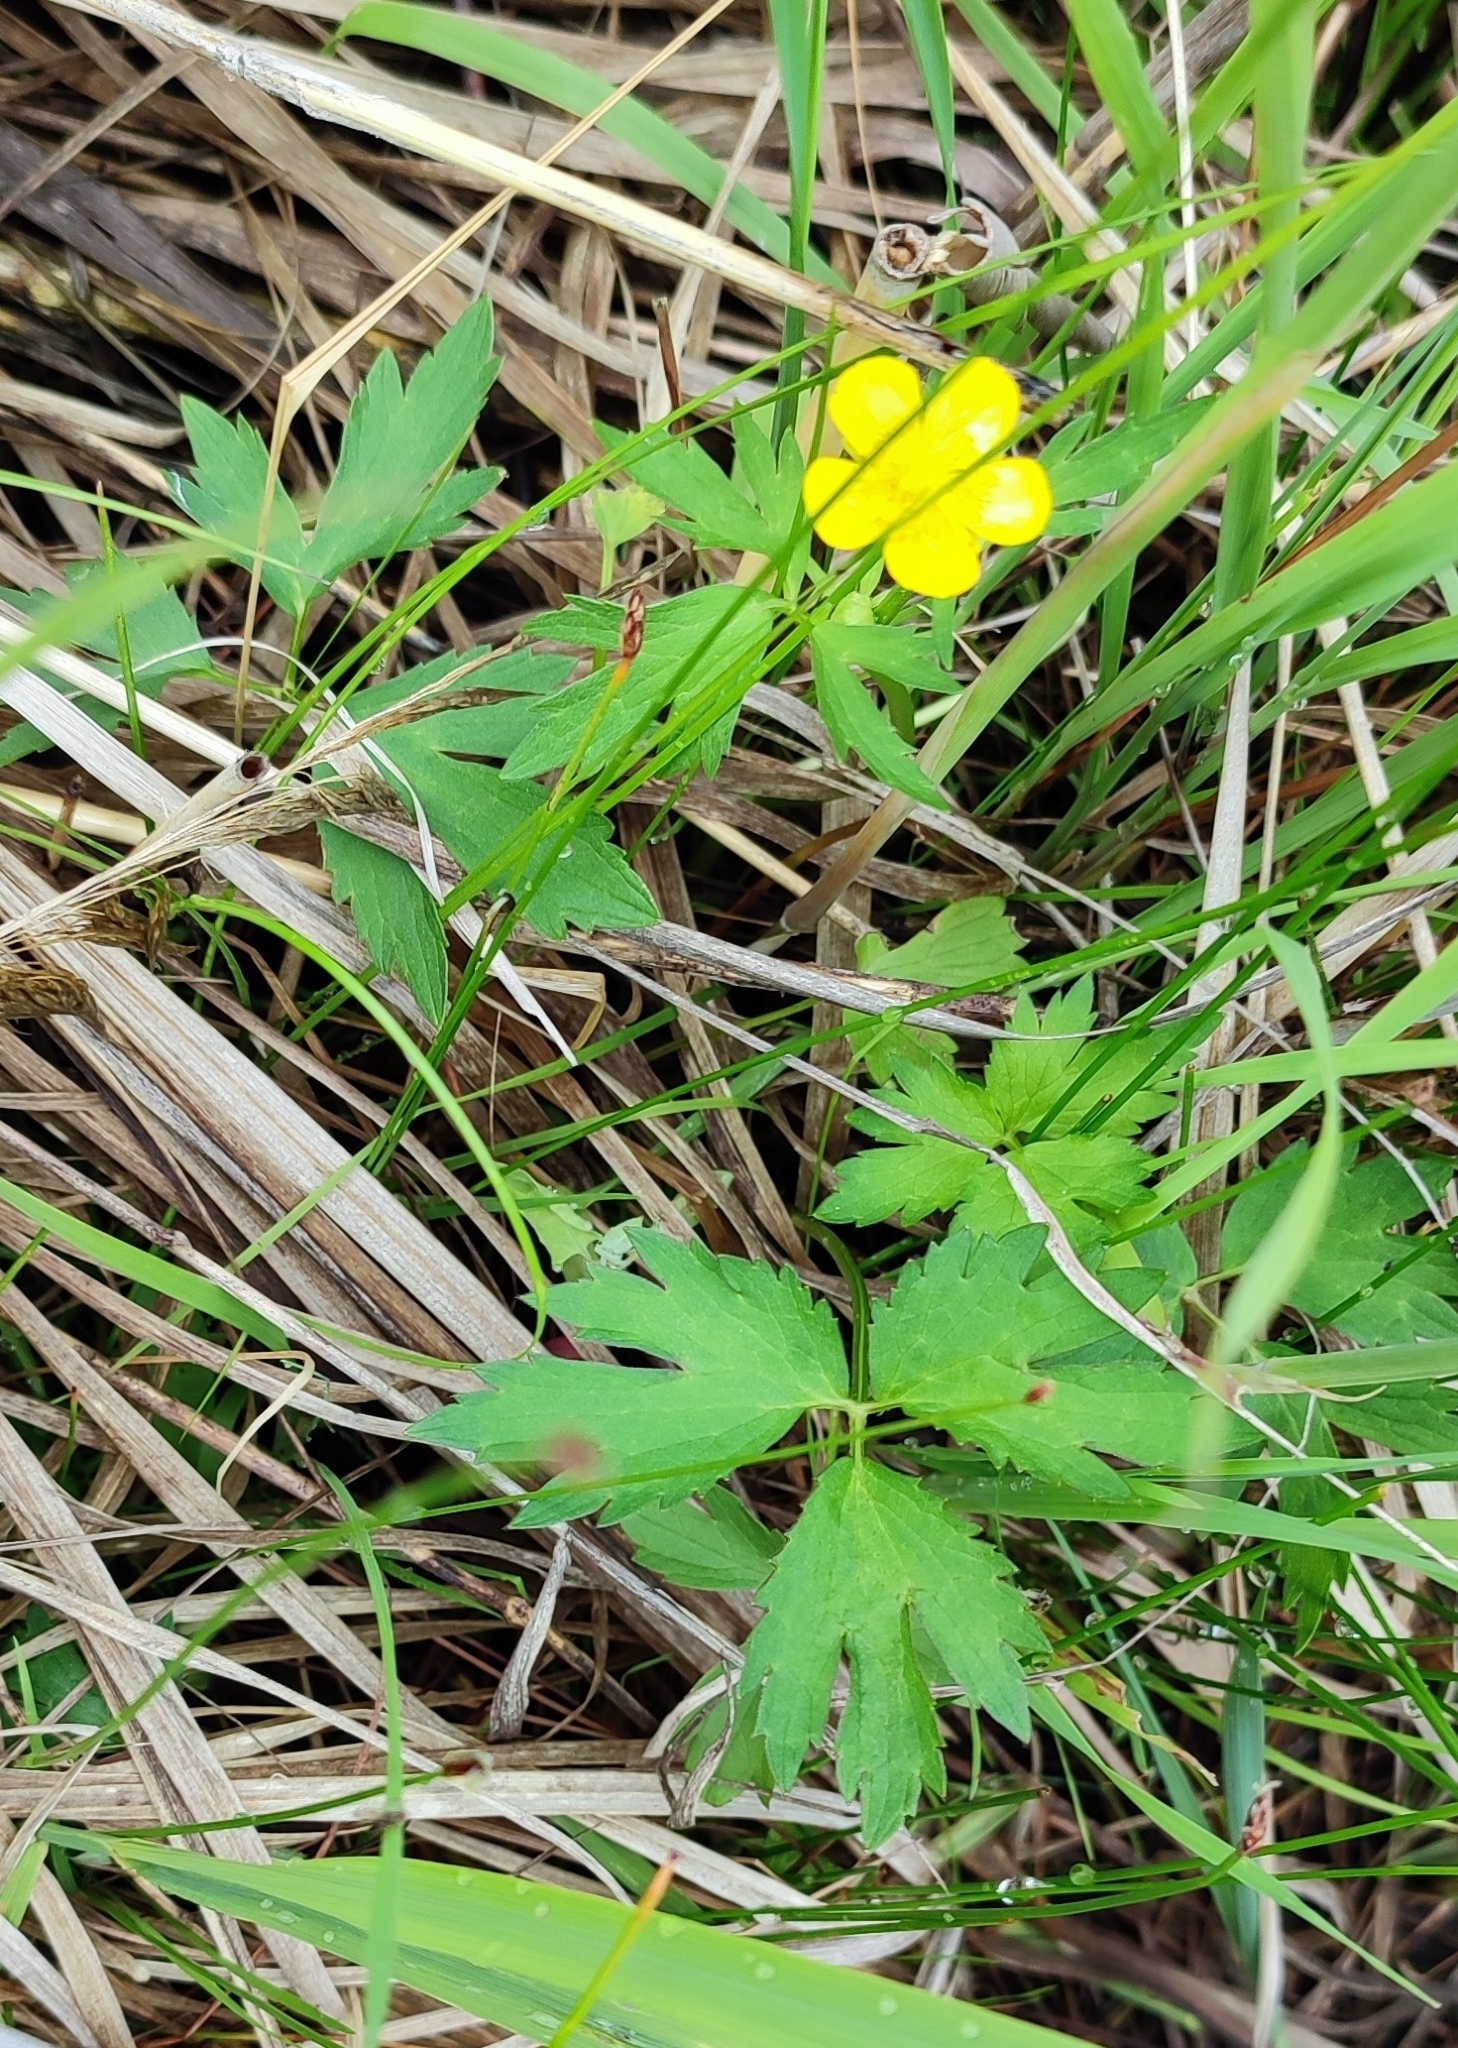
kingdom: Plantae
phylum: Tracheophyta
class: Magnoliopsida
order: Ranunculales
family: Ranunculaceae
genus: Ranunculus
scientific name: Ranunculus repens
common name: Creeping buttercup
